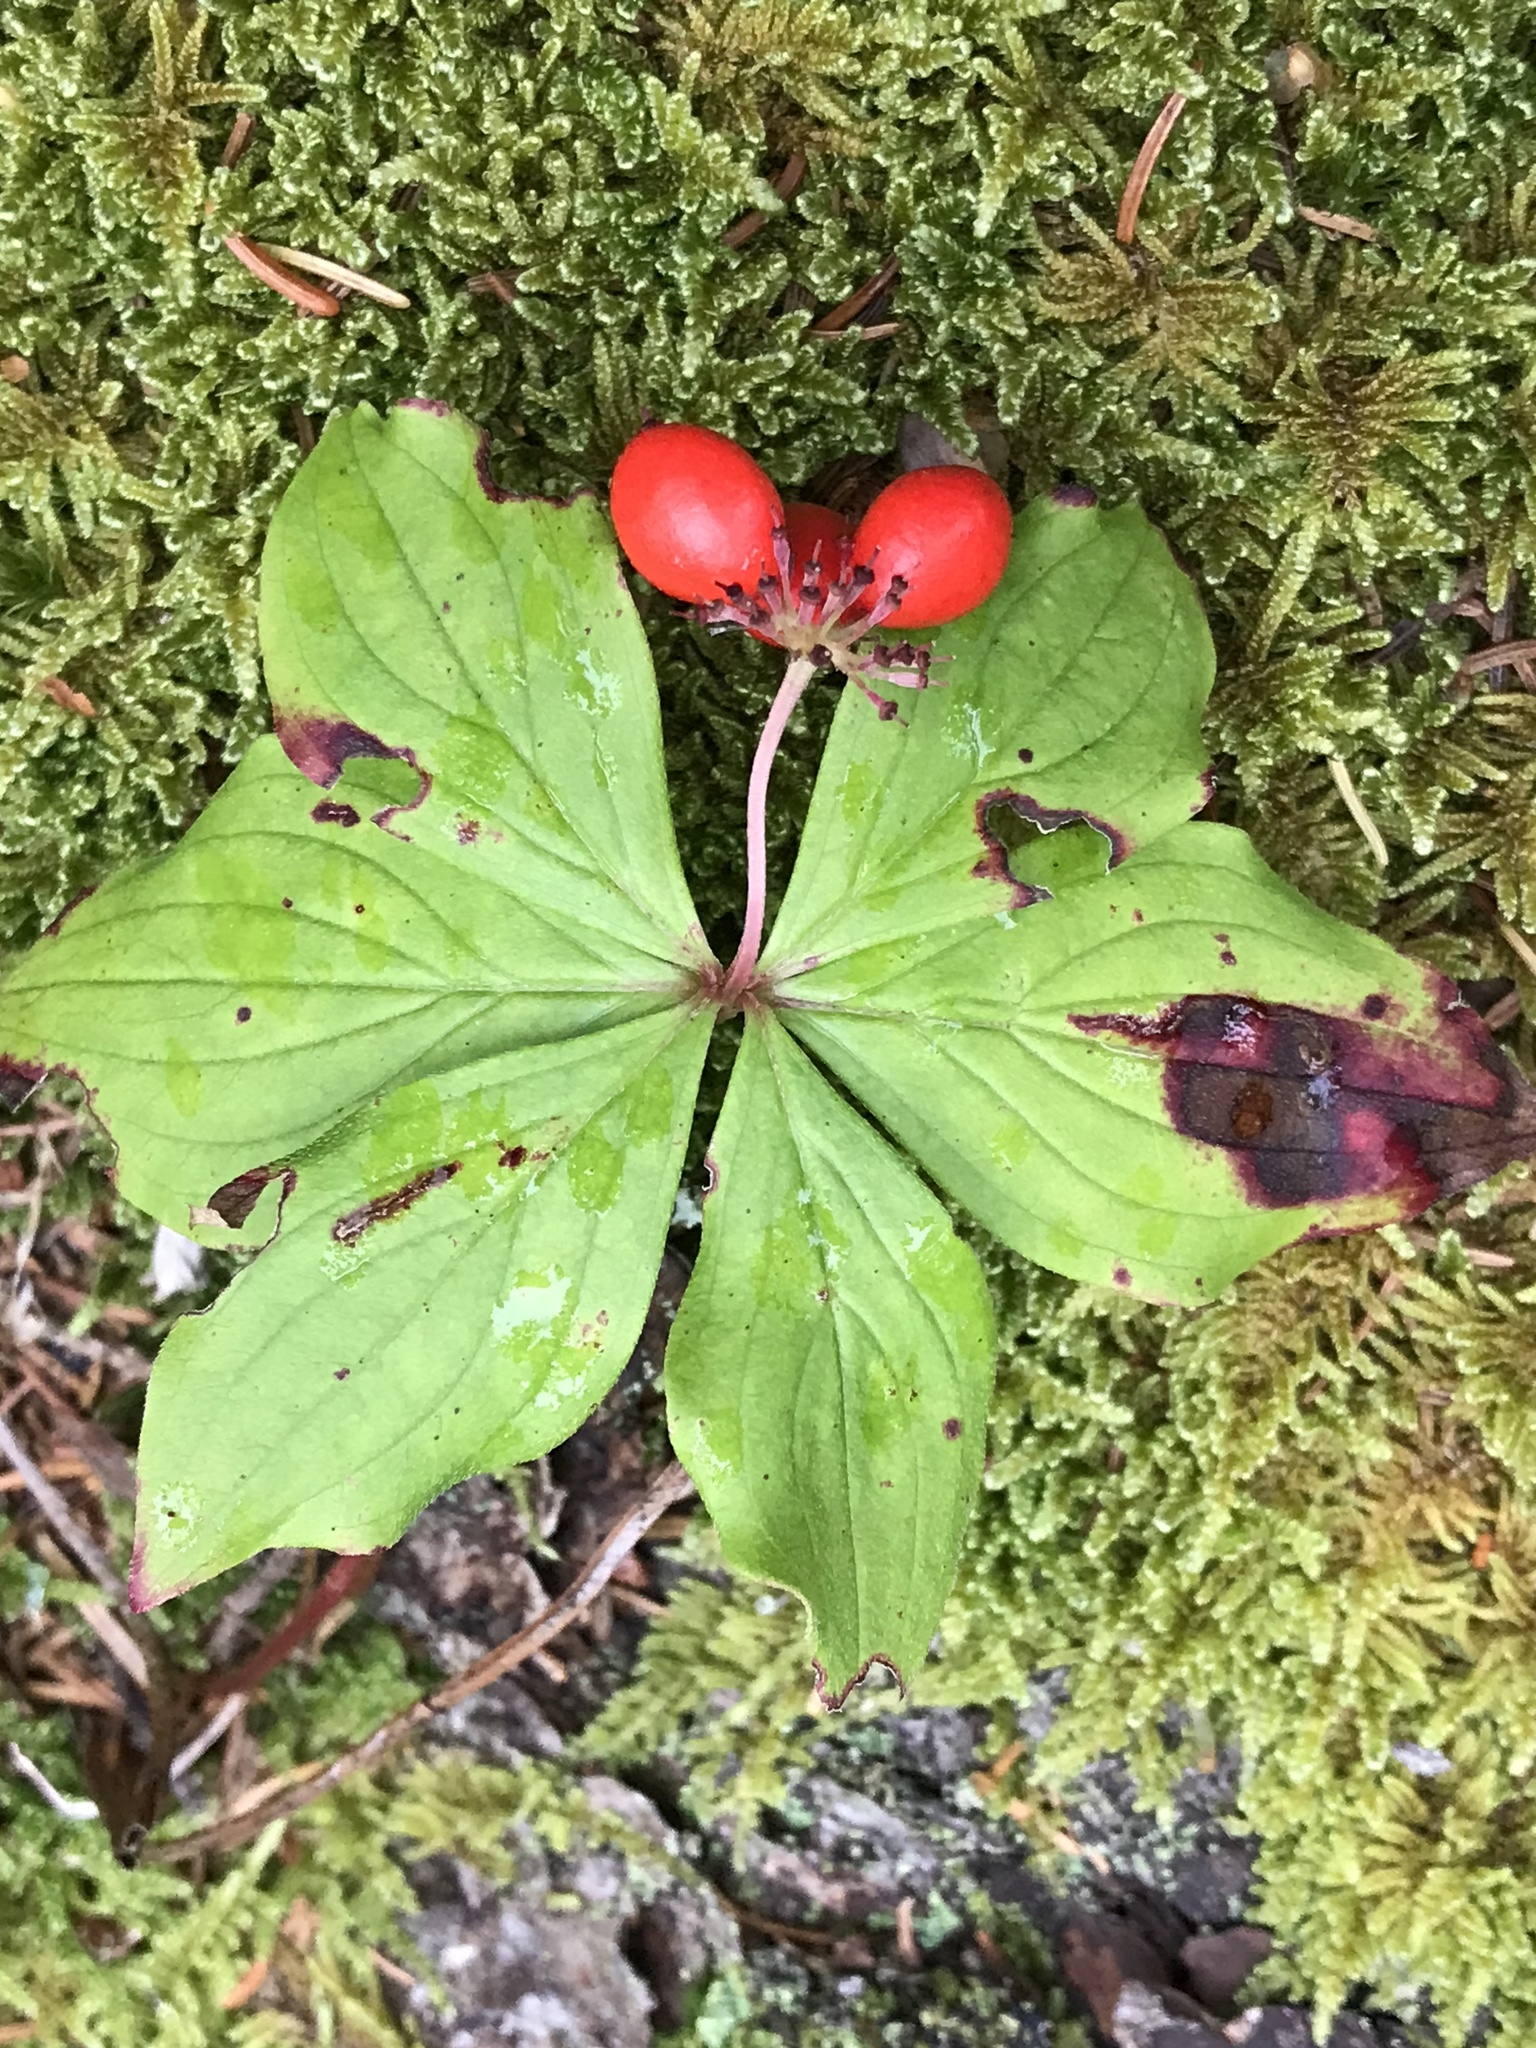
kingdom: Plantae
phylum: Tracheophyta
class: Magnoliopsida
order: Cornales
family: Cornaceae
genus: Cornus
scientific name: Cornus canadensis
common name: Creeping dogwood
